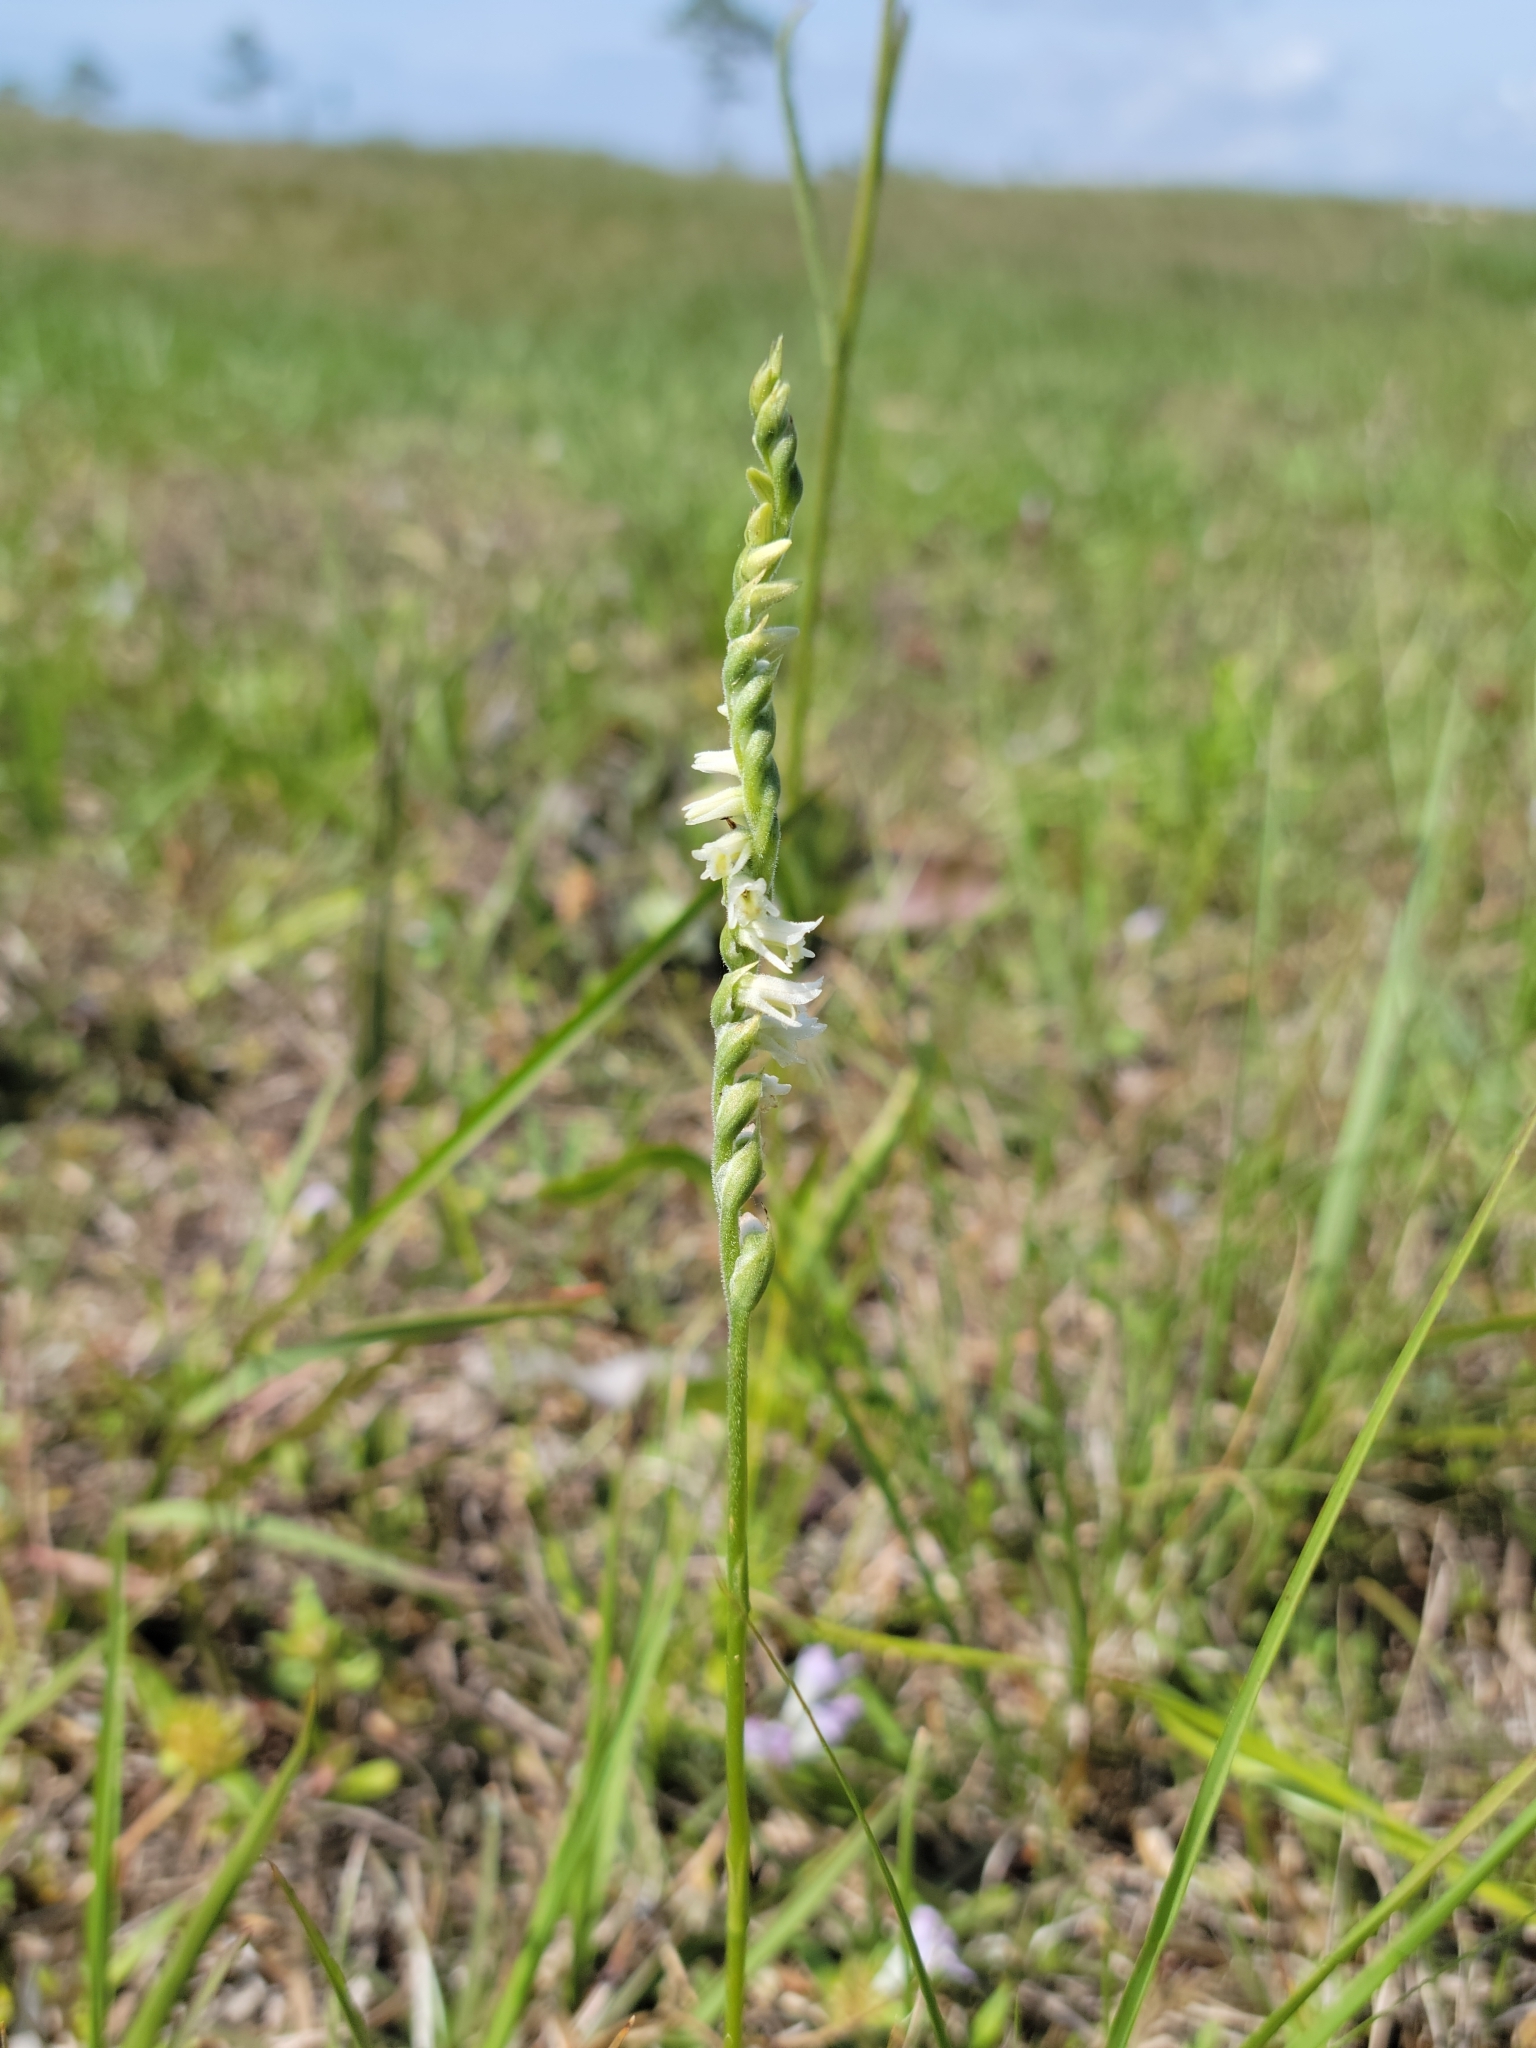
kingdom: Plantae
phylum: Tracheophyta
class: Liliopsida
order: Asparagales
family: Orchidaceae
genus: Spiranthes
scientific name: Spiranthes vernalis
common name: Spring ladies'-tresses
